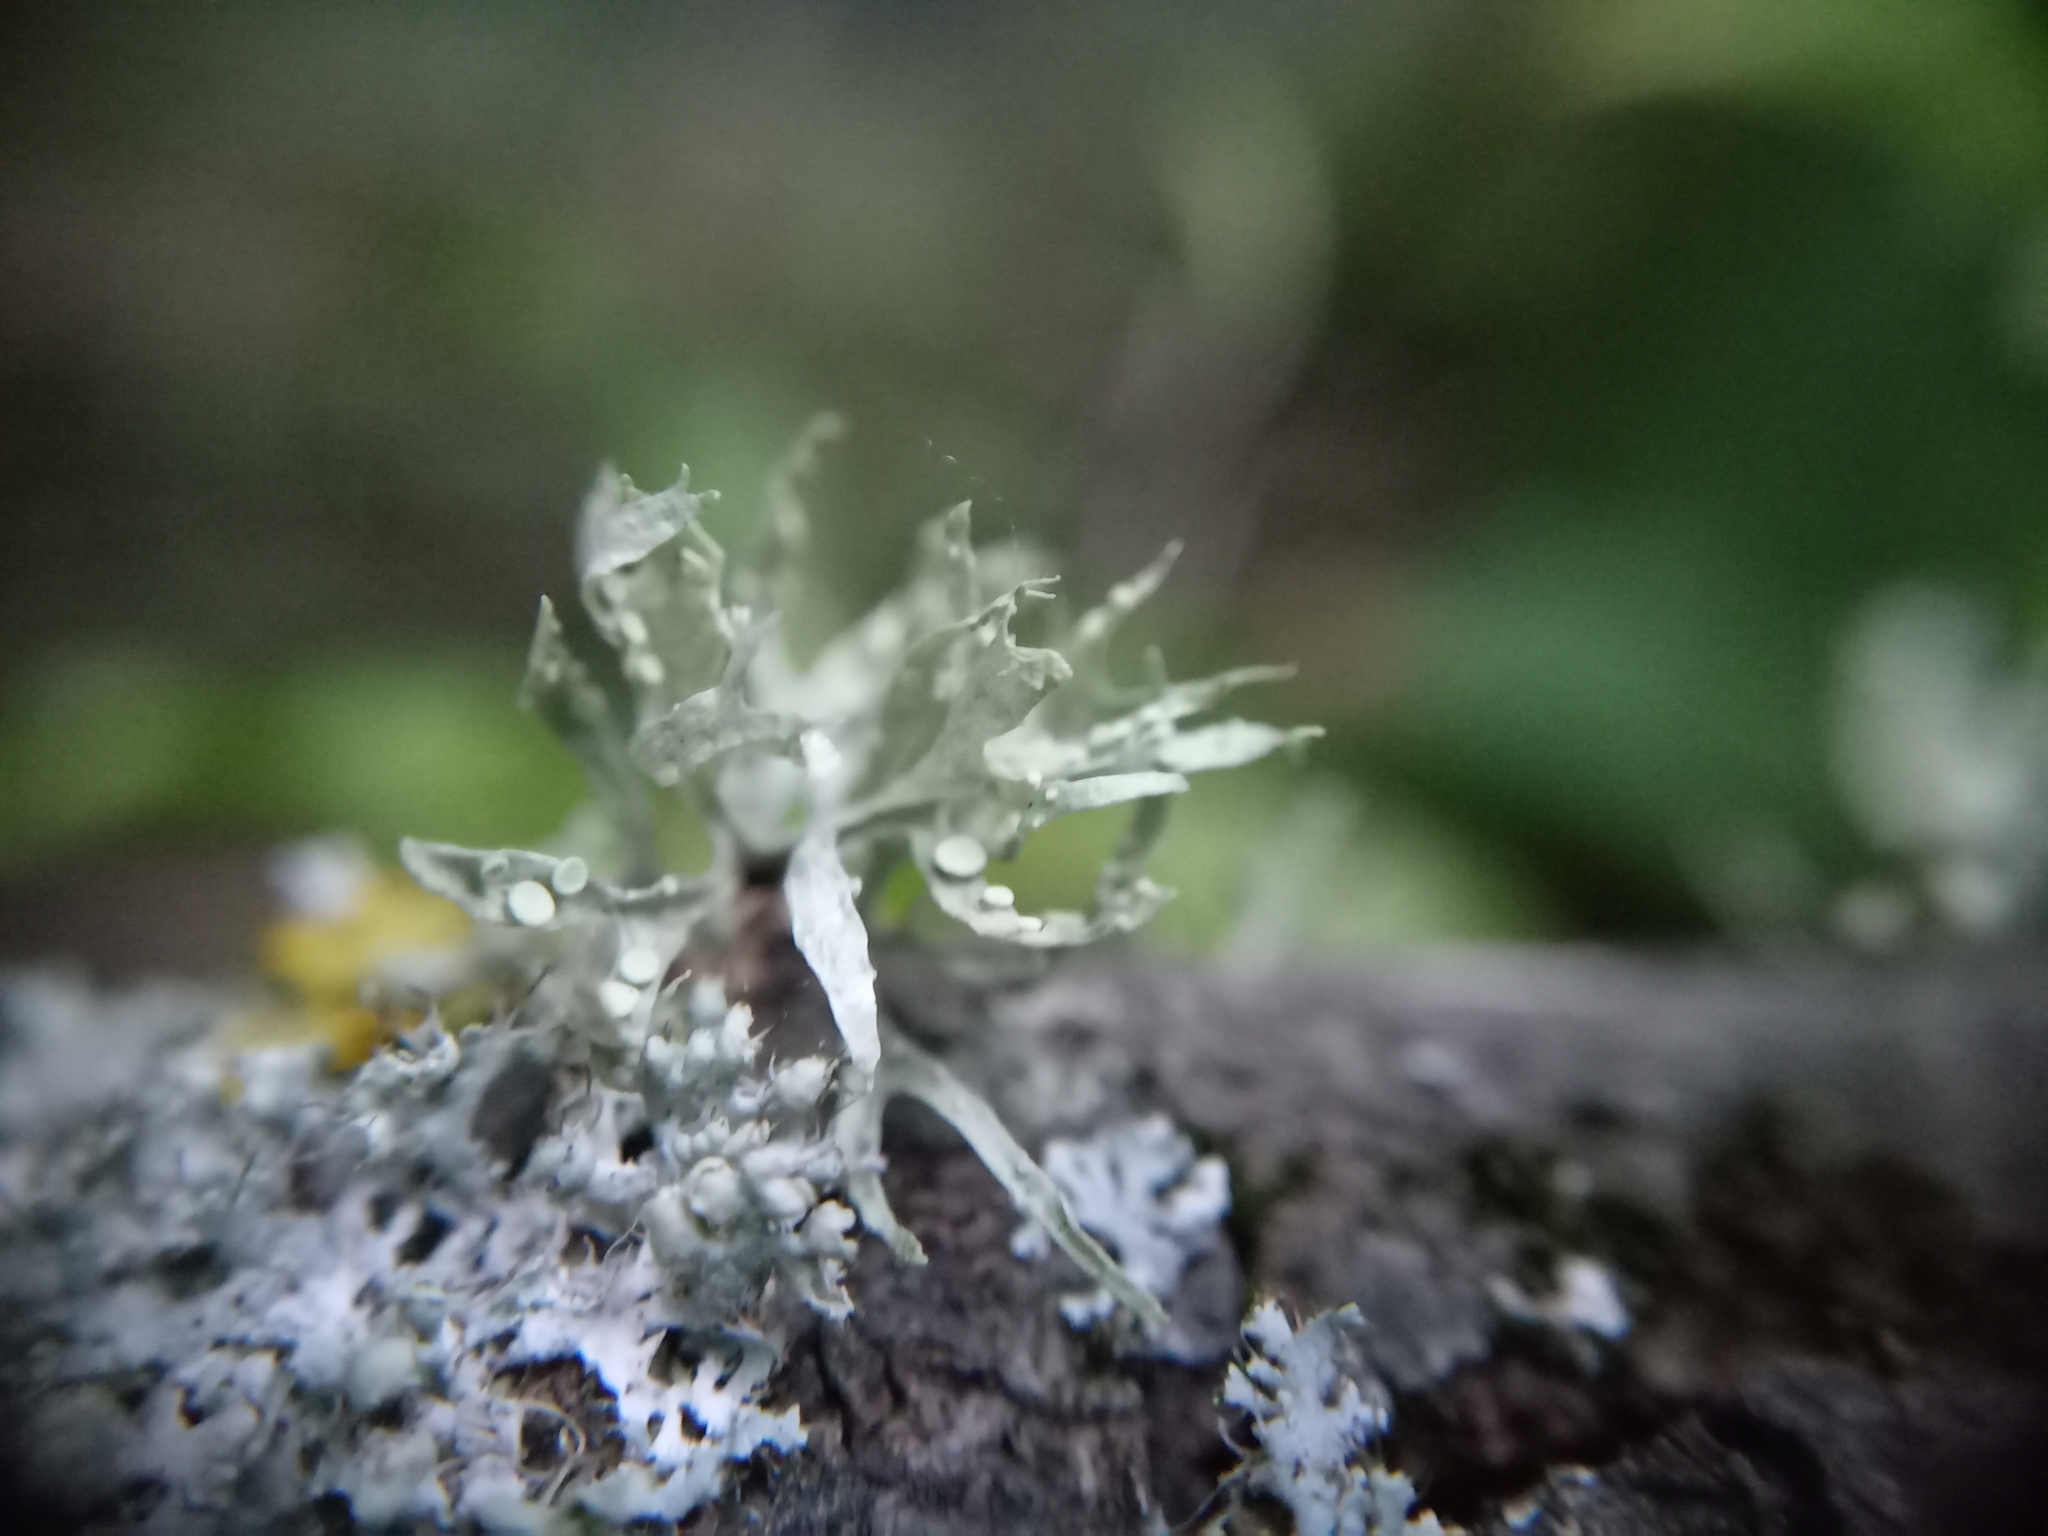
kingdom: Fungi
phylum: Ascomycota
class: Lecanoromycetes
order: Lecanorales
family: Ramalinaceae
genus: Ramalina
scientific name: Ramalina celastri
